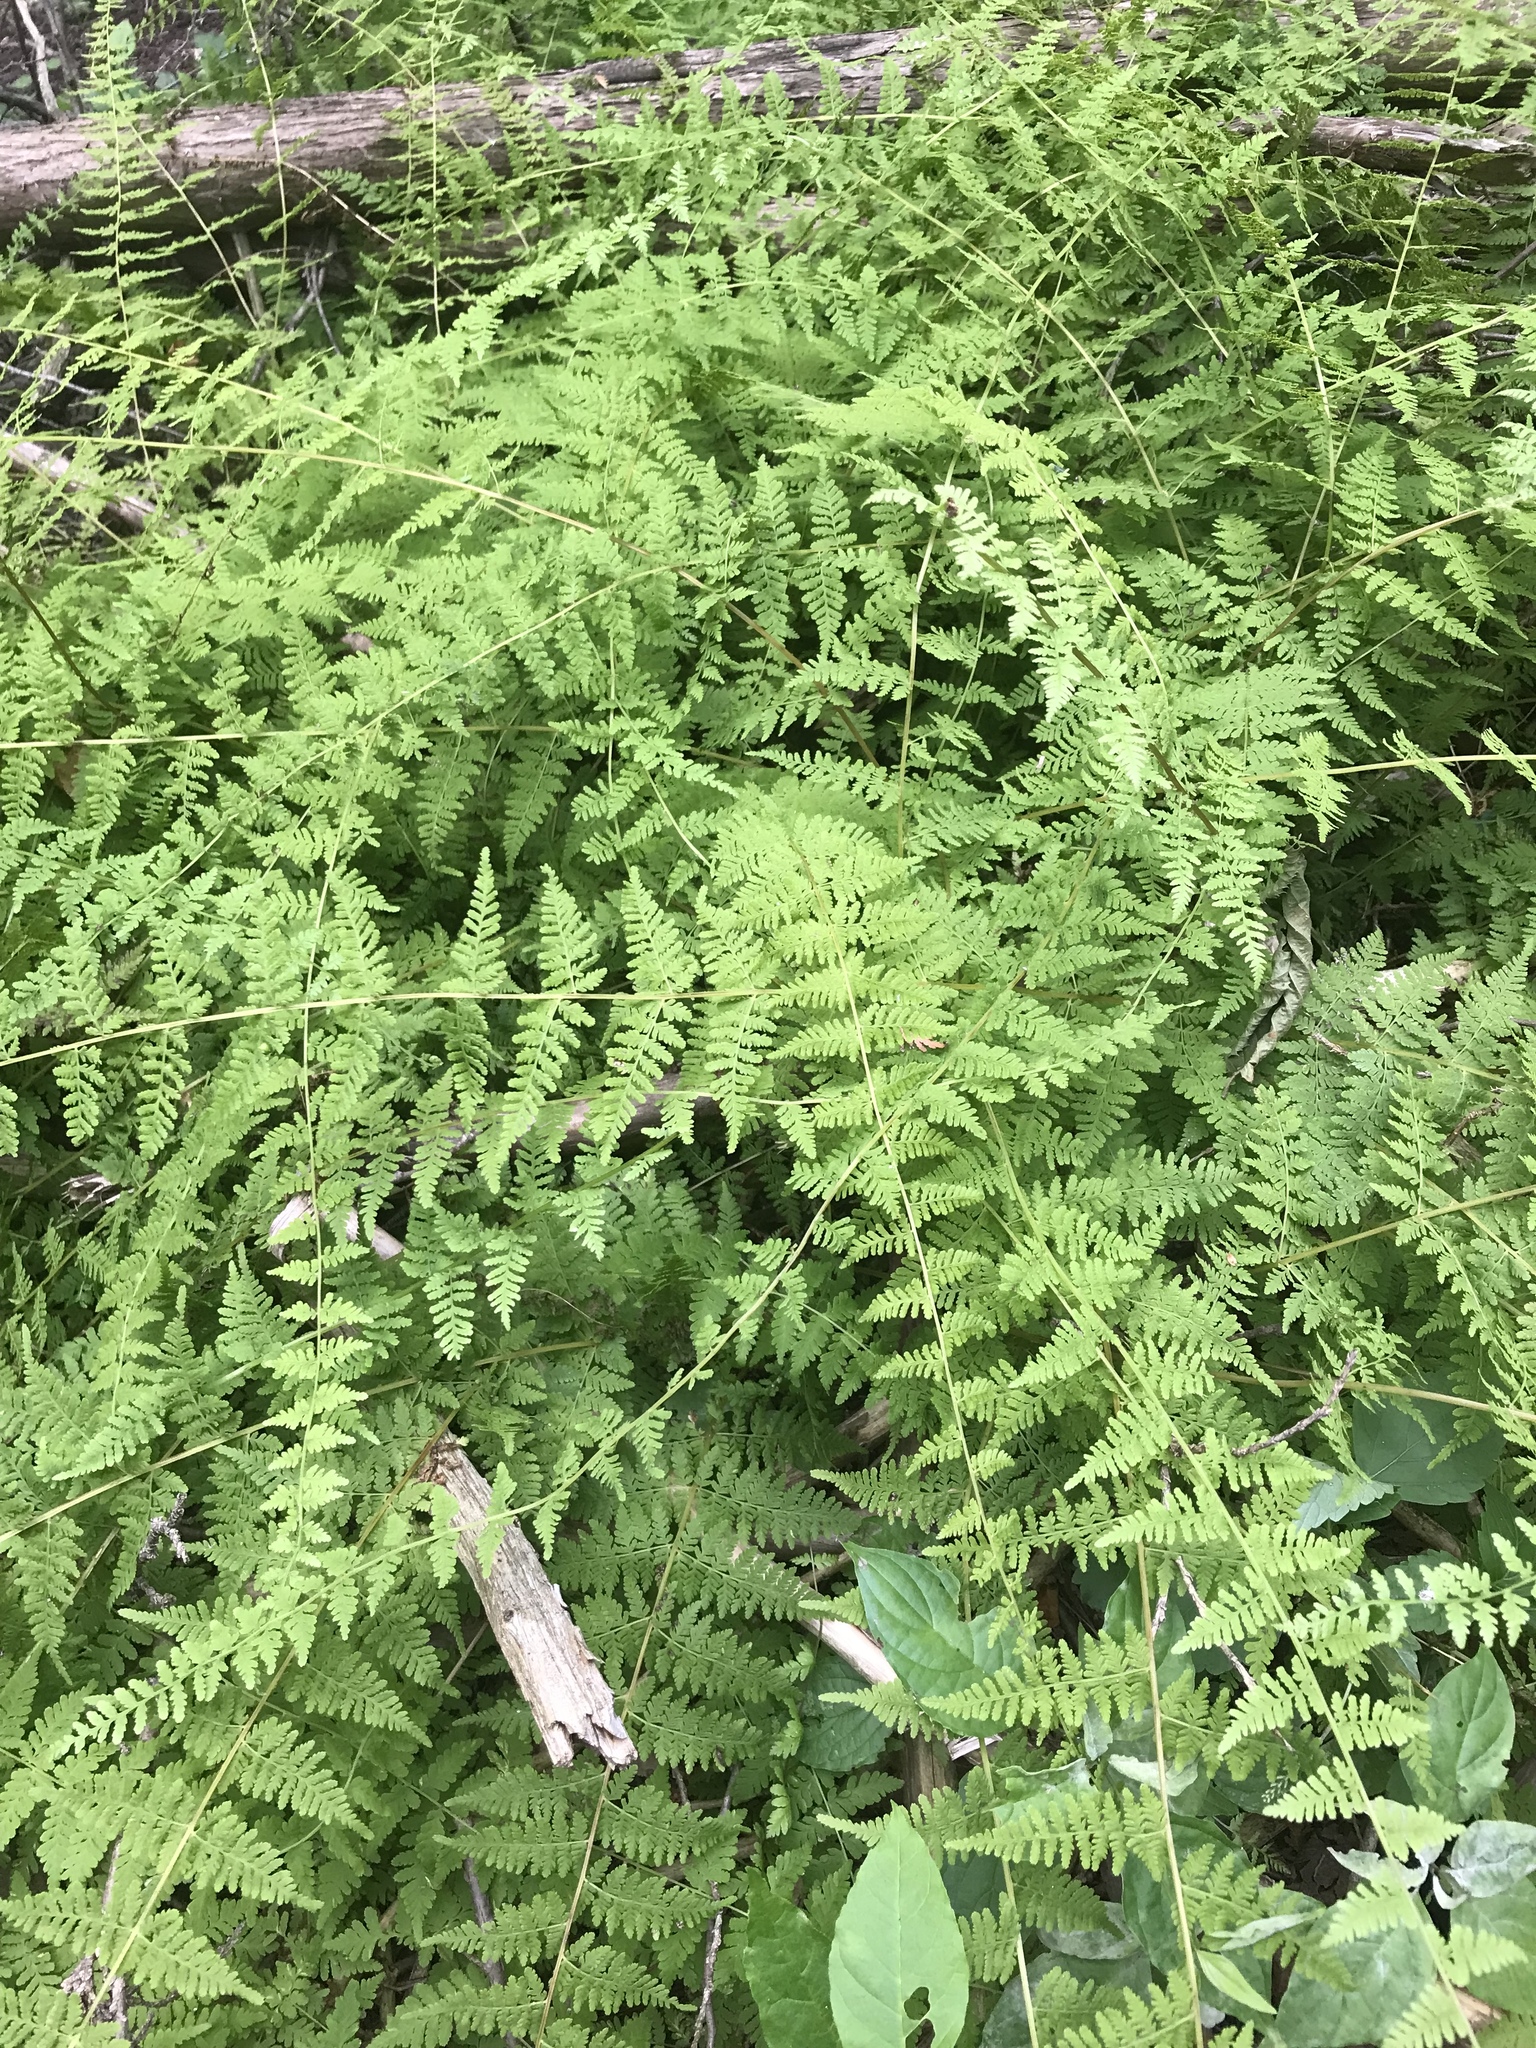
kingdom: Plantae
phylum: Tracheophyta
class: Polypodiopsida
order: Polypodiales
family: Cystopteridaceae
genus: Cystopteris
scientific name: Cystopteris bulbifera
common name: Bulblet bladder fern
